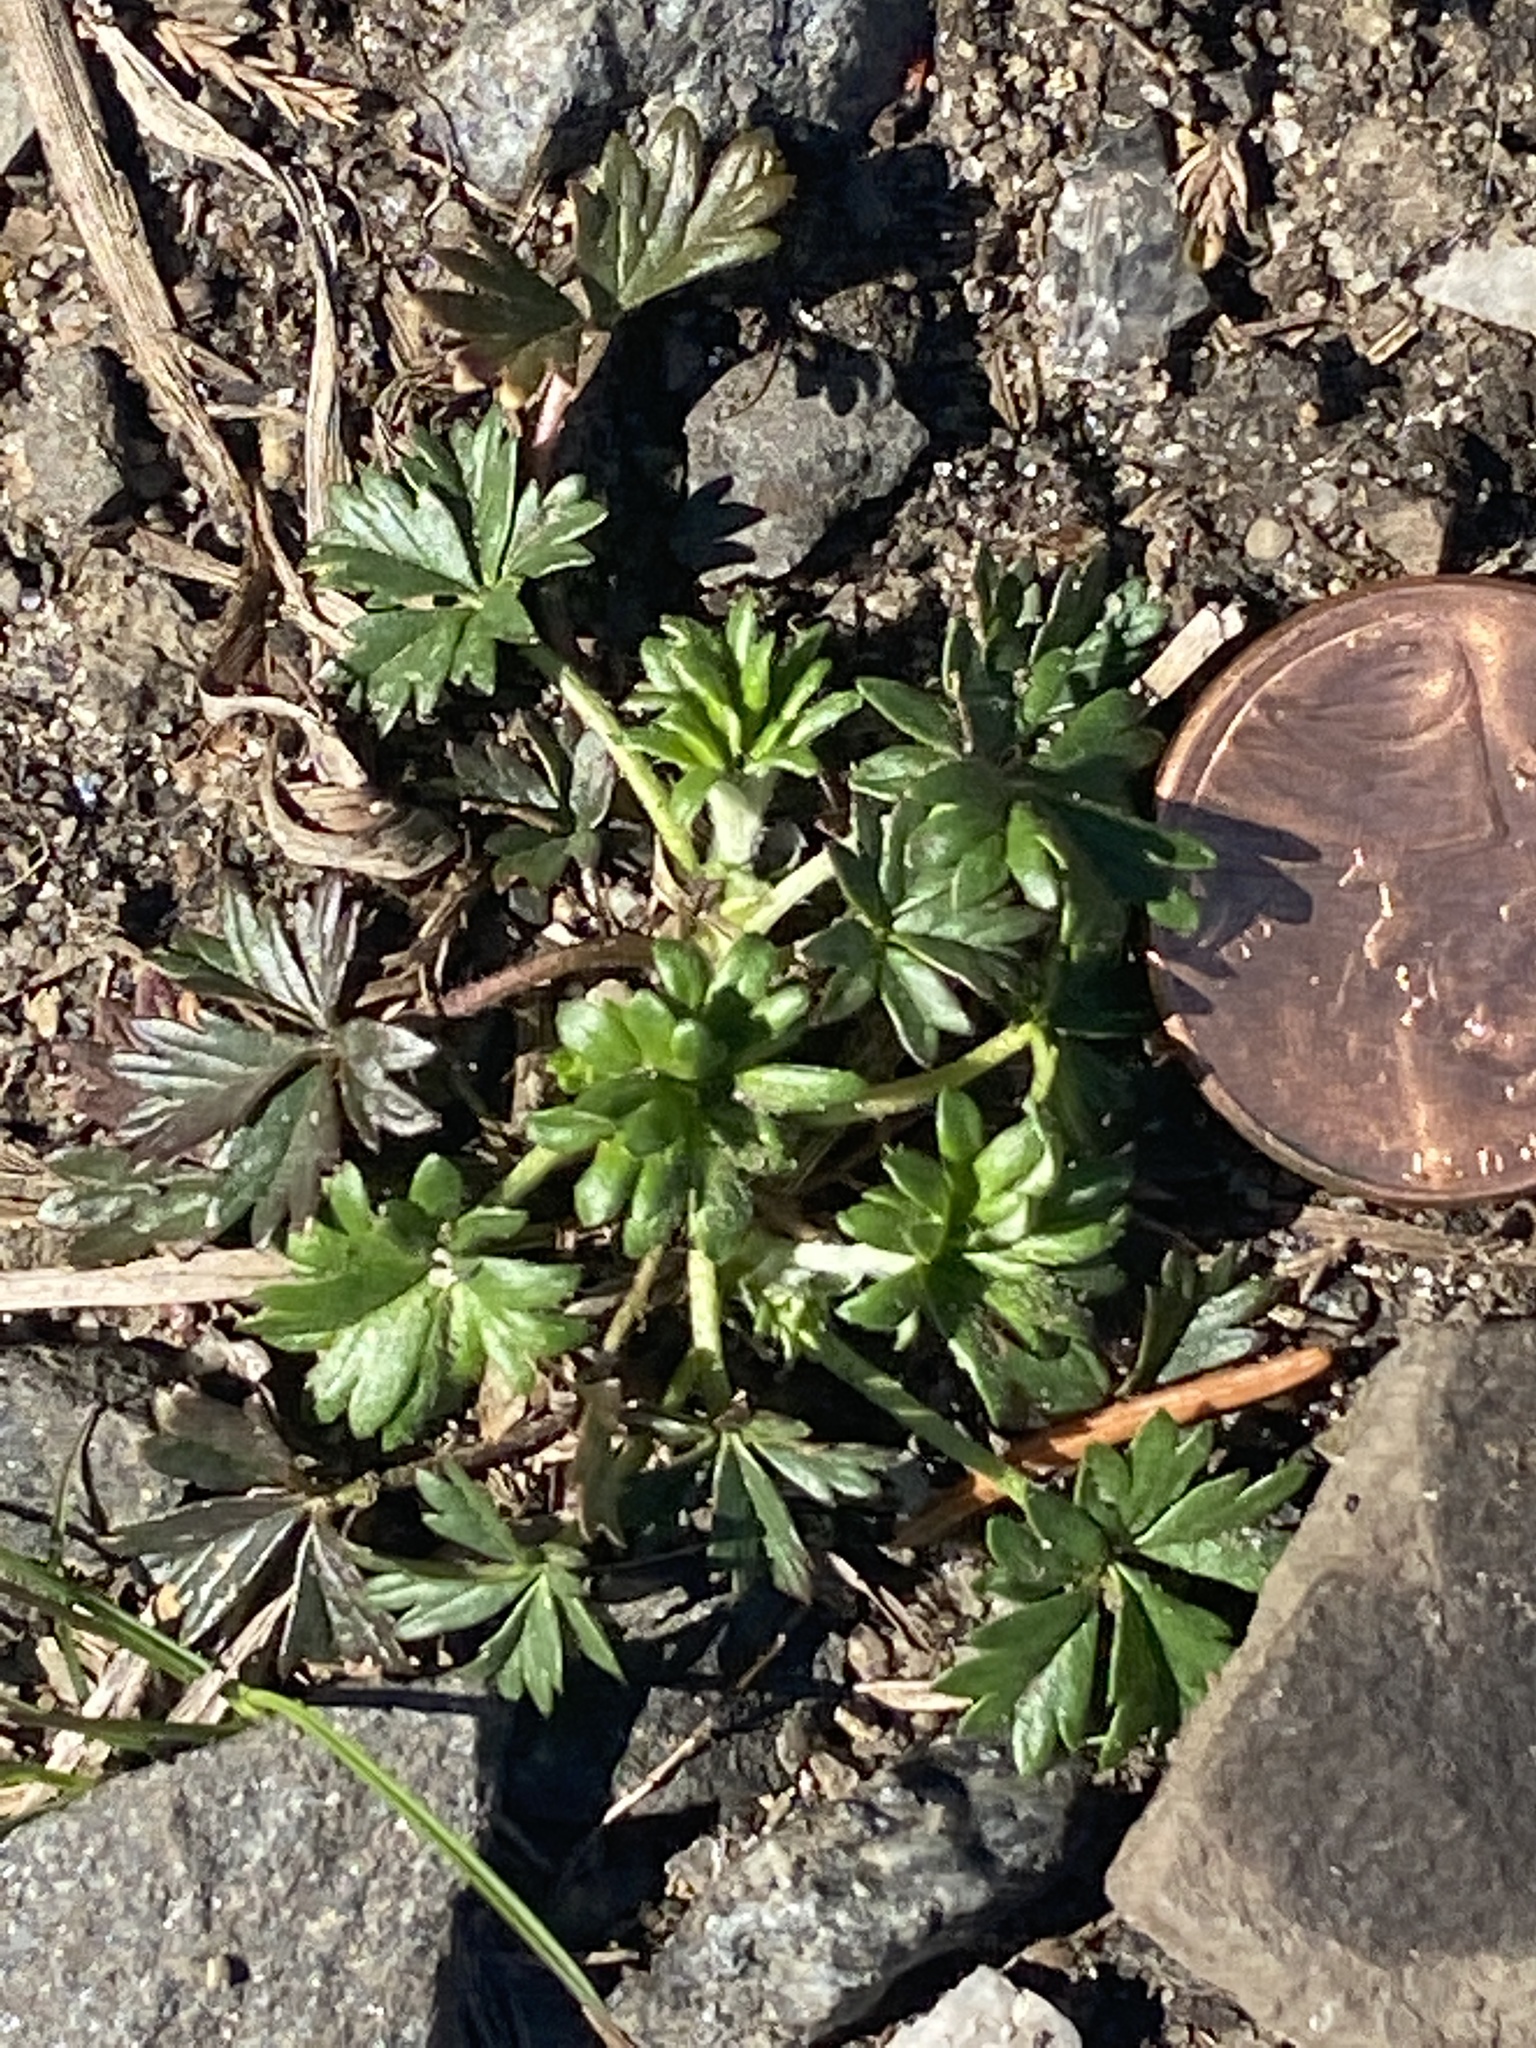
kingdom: Plantae
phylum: Tracheophyta
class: Magnoliopsida
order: Rosales
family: Rosaceae
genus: Potentilla
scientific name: Potentilla argentea
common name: Hoary cinquefoil
